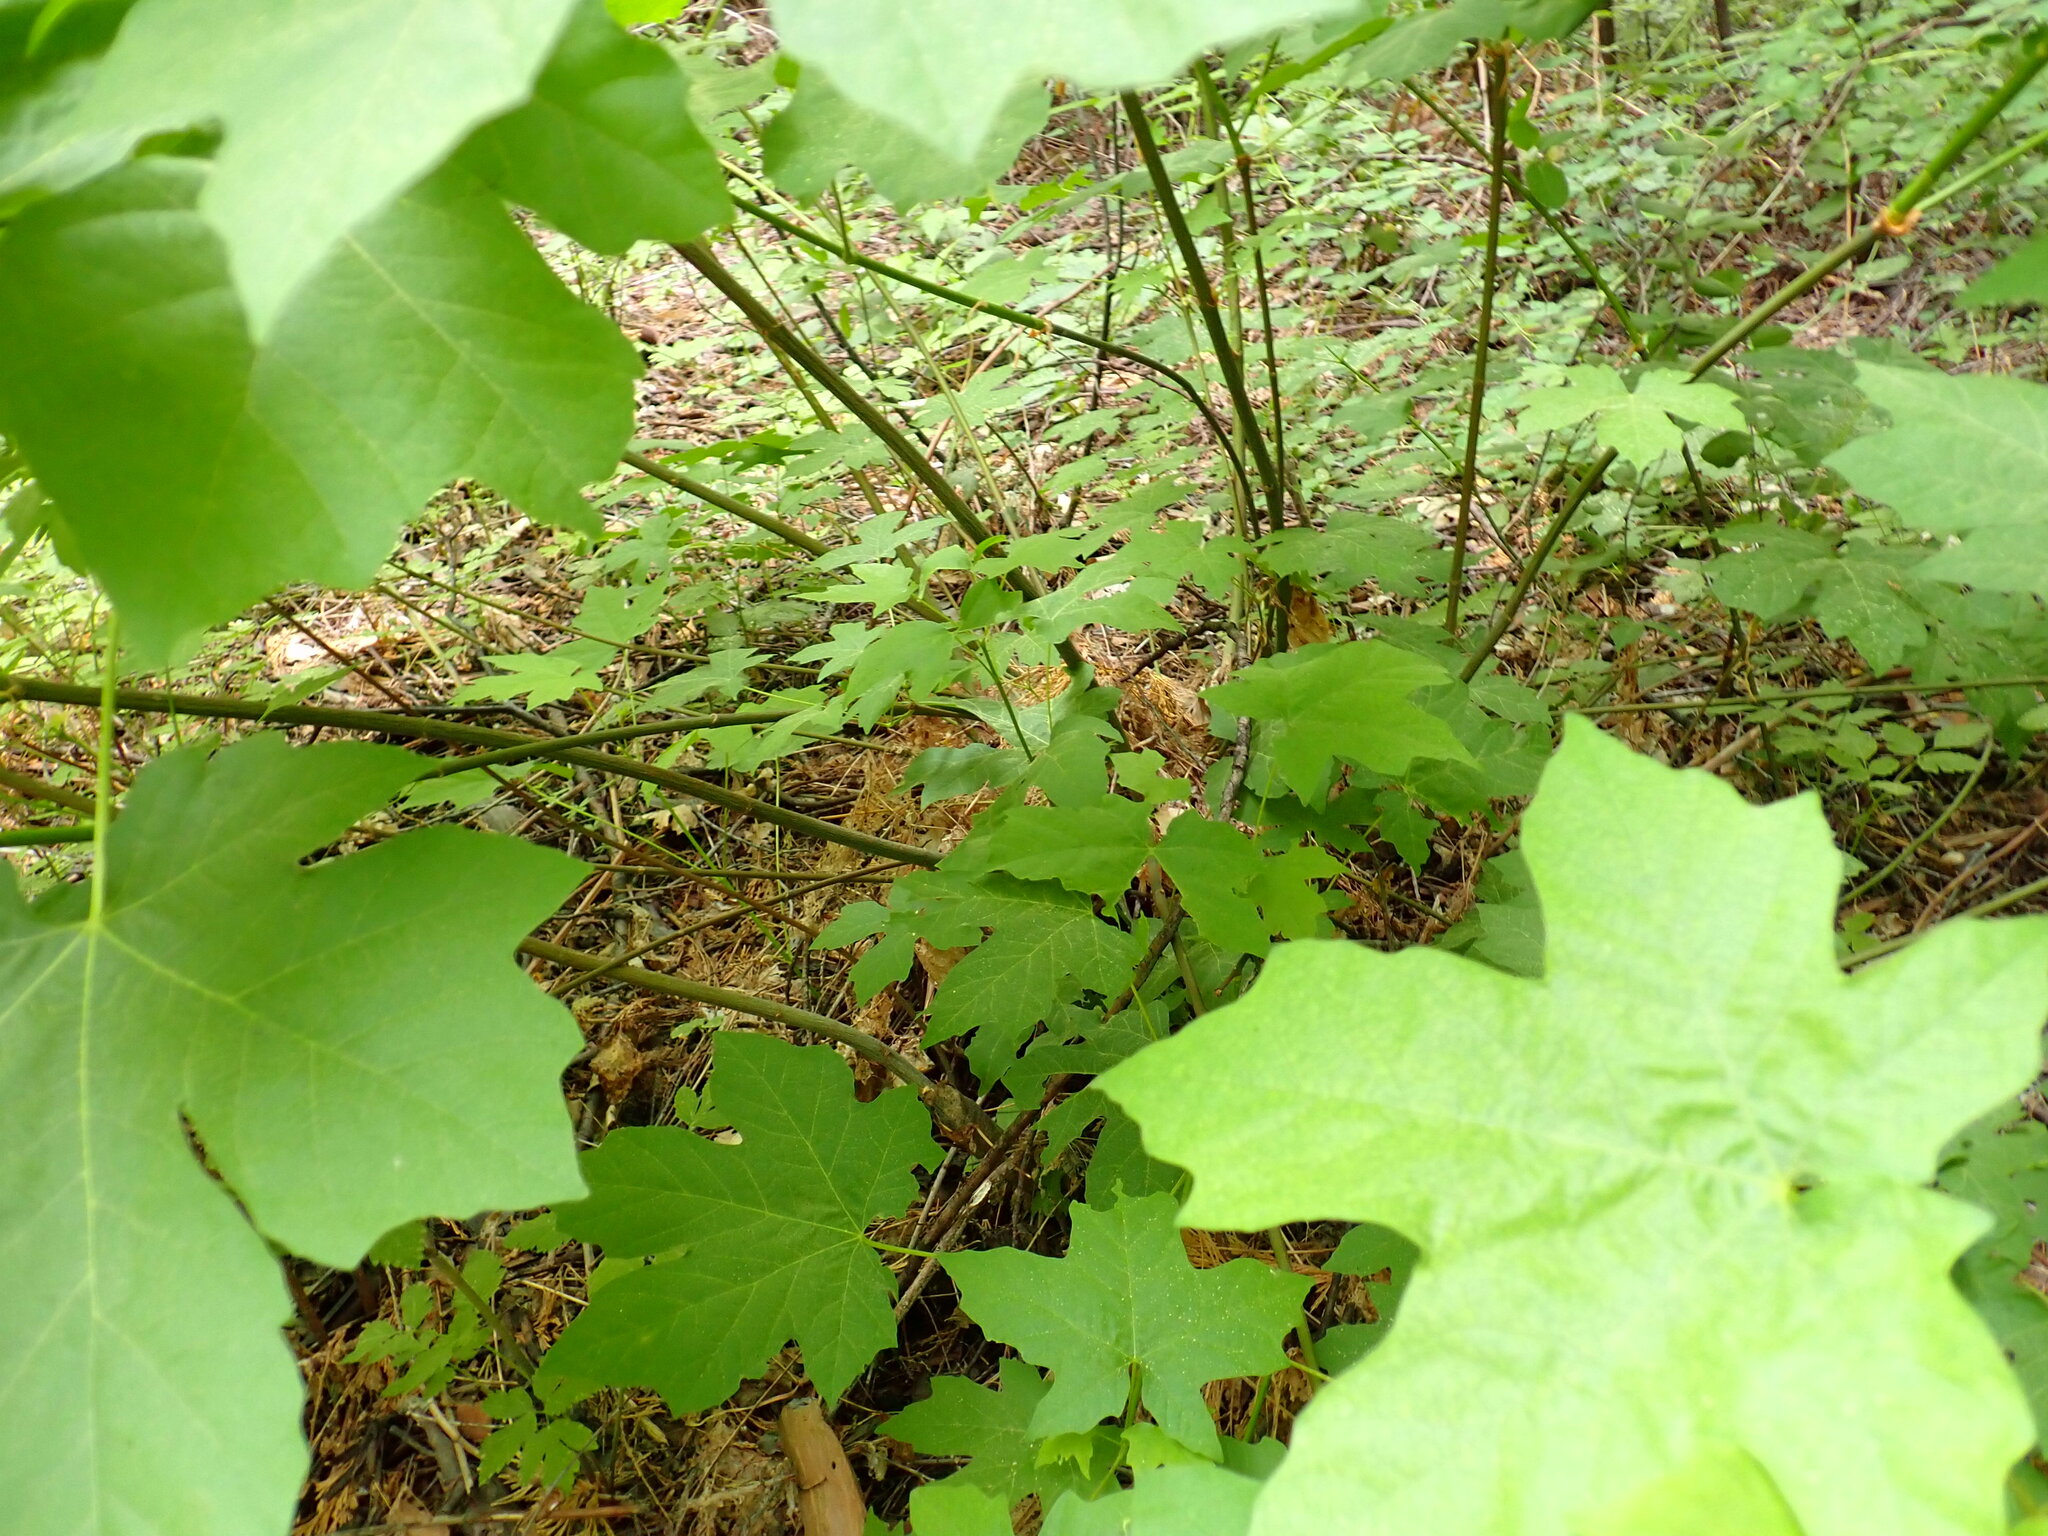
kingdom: Plantae
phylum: Tracheophyta
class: Magnoliopsida
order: Sapindales
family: Sapindaceae
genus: Acer
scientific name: Acer macrophyllum
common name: Oregon maple
